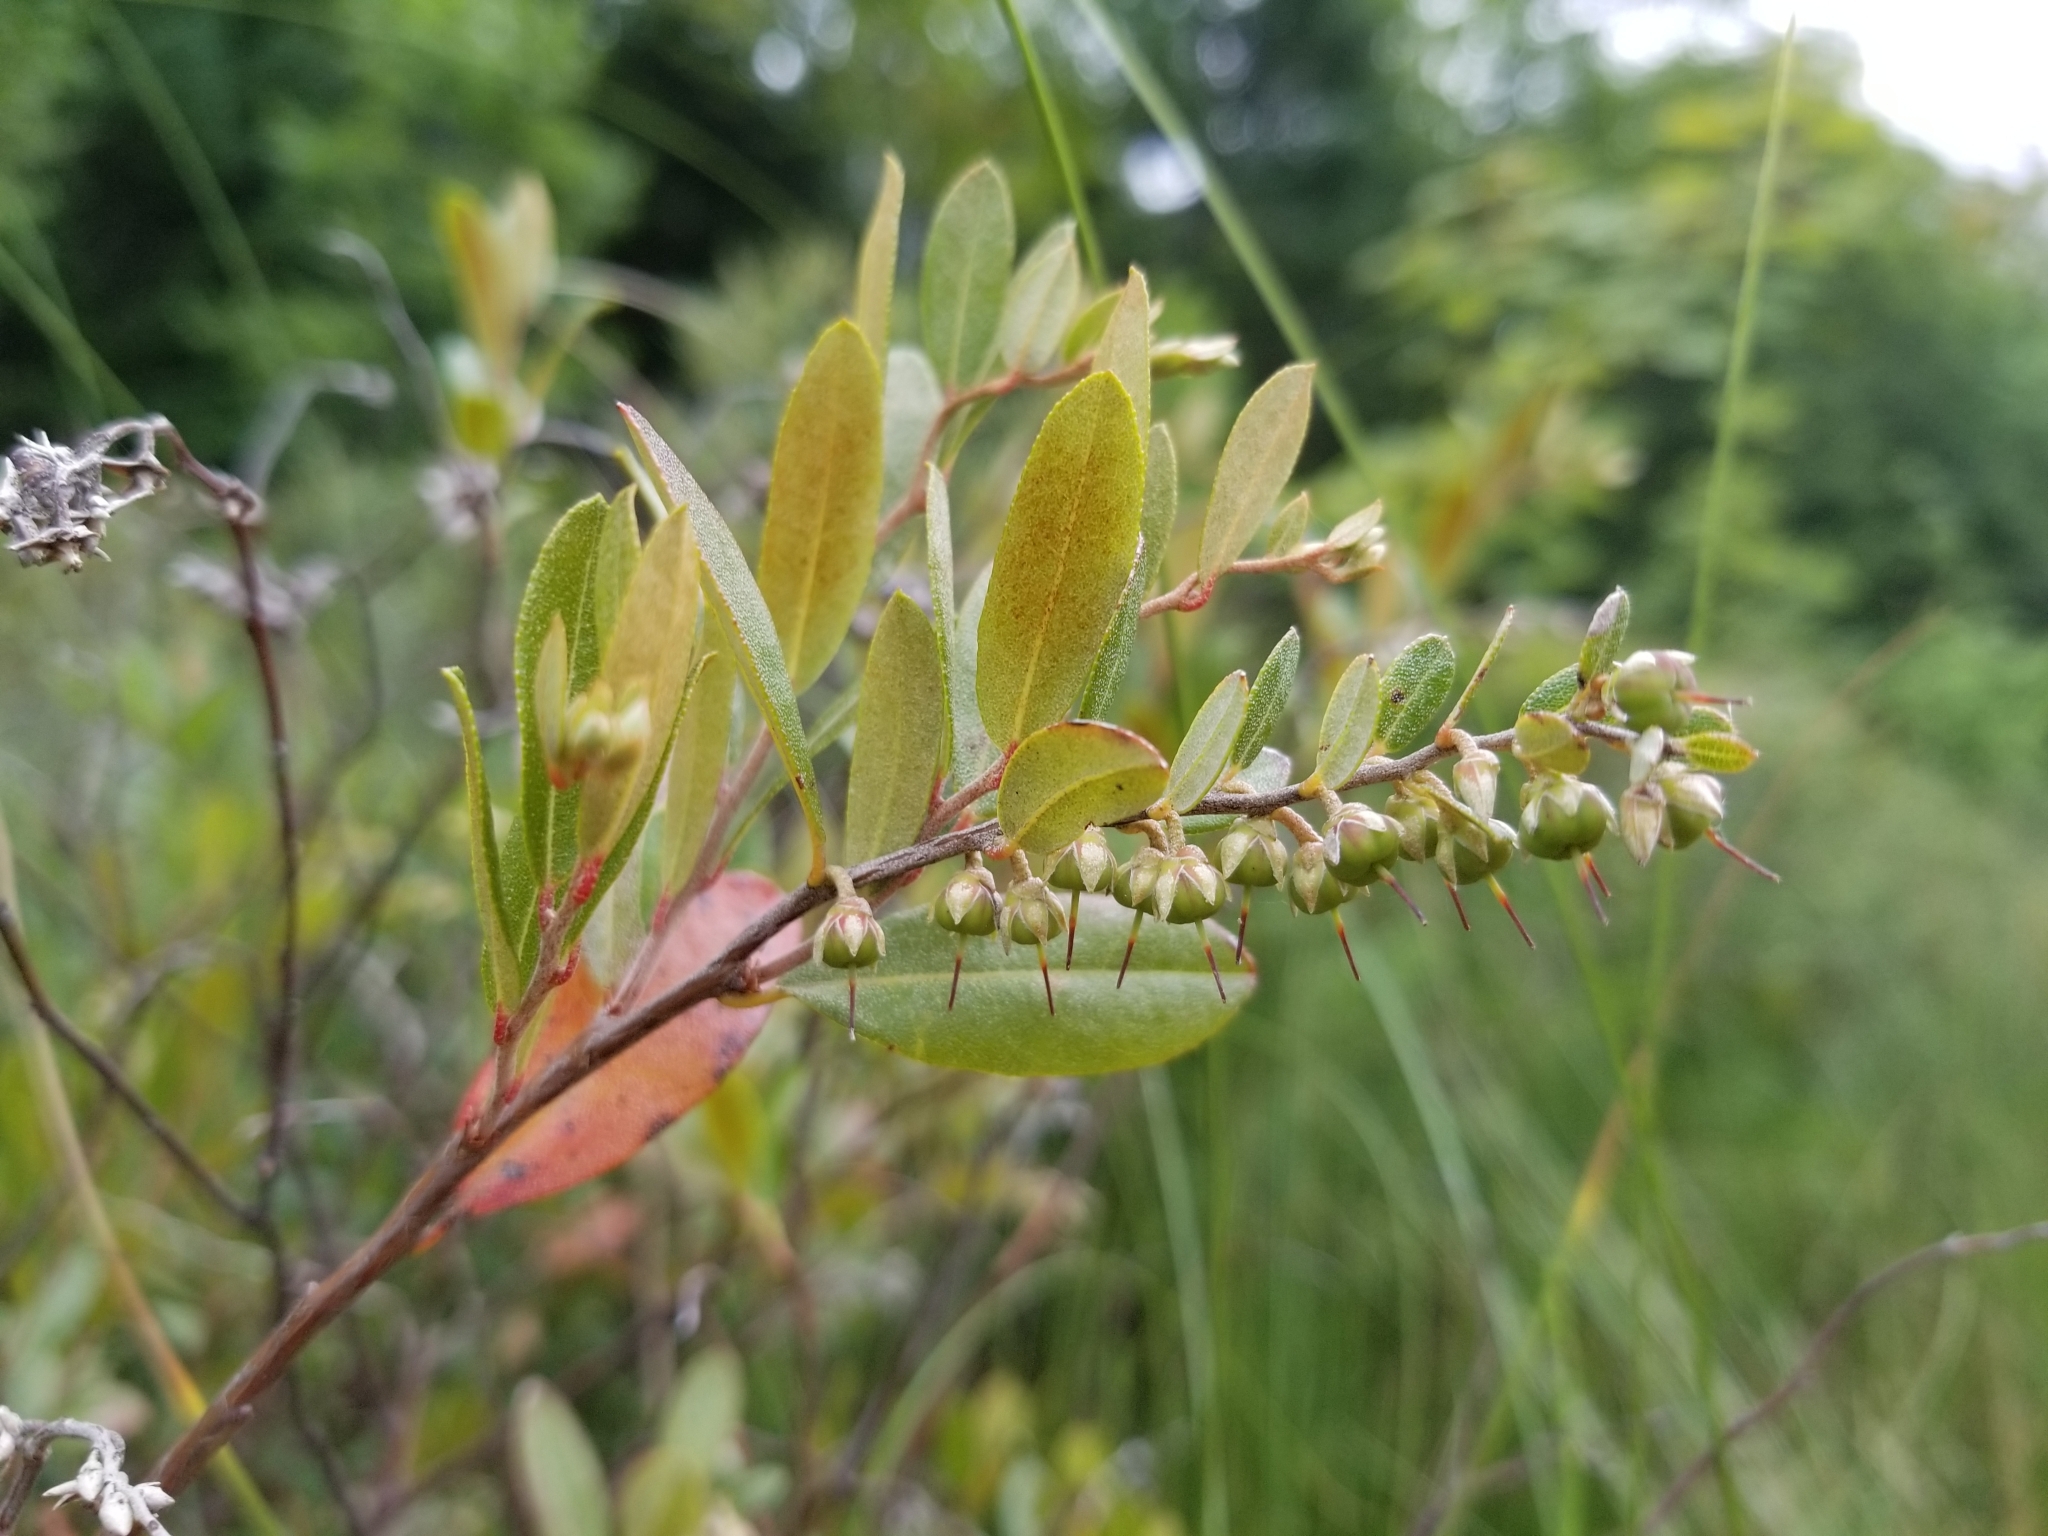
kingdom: Plantae
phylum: Tracheophyta
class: Magnoliopsida
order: Ericales
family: Ericaceae
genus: Chamaedaphne
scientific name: Chamaedaphne calyculata
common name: Leatherleaf
